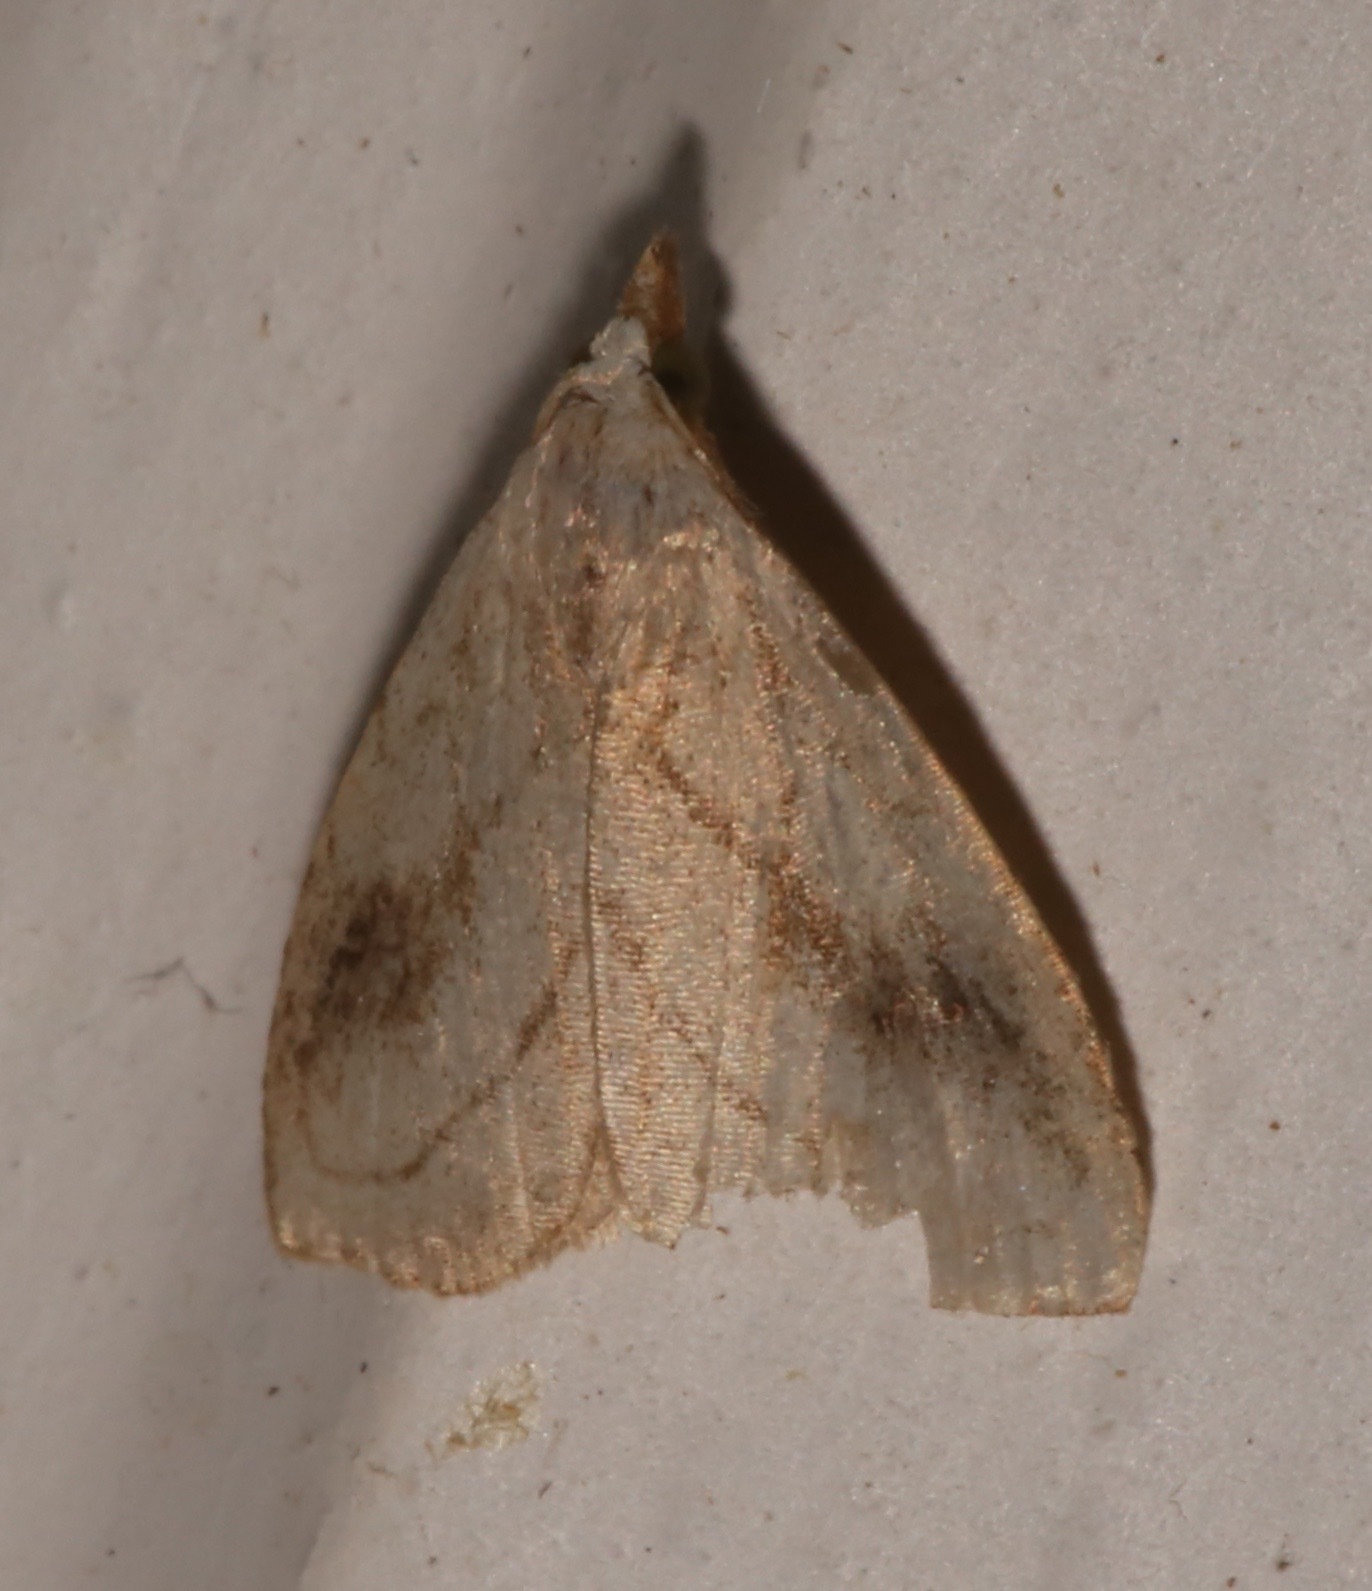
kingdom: Animalia
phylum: Arthropoda
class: Insecta
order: Lepidoptera
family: Erebidae
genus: Rivula
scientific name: Rivula propinqualis
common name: Spotted grass moth
